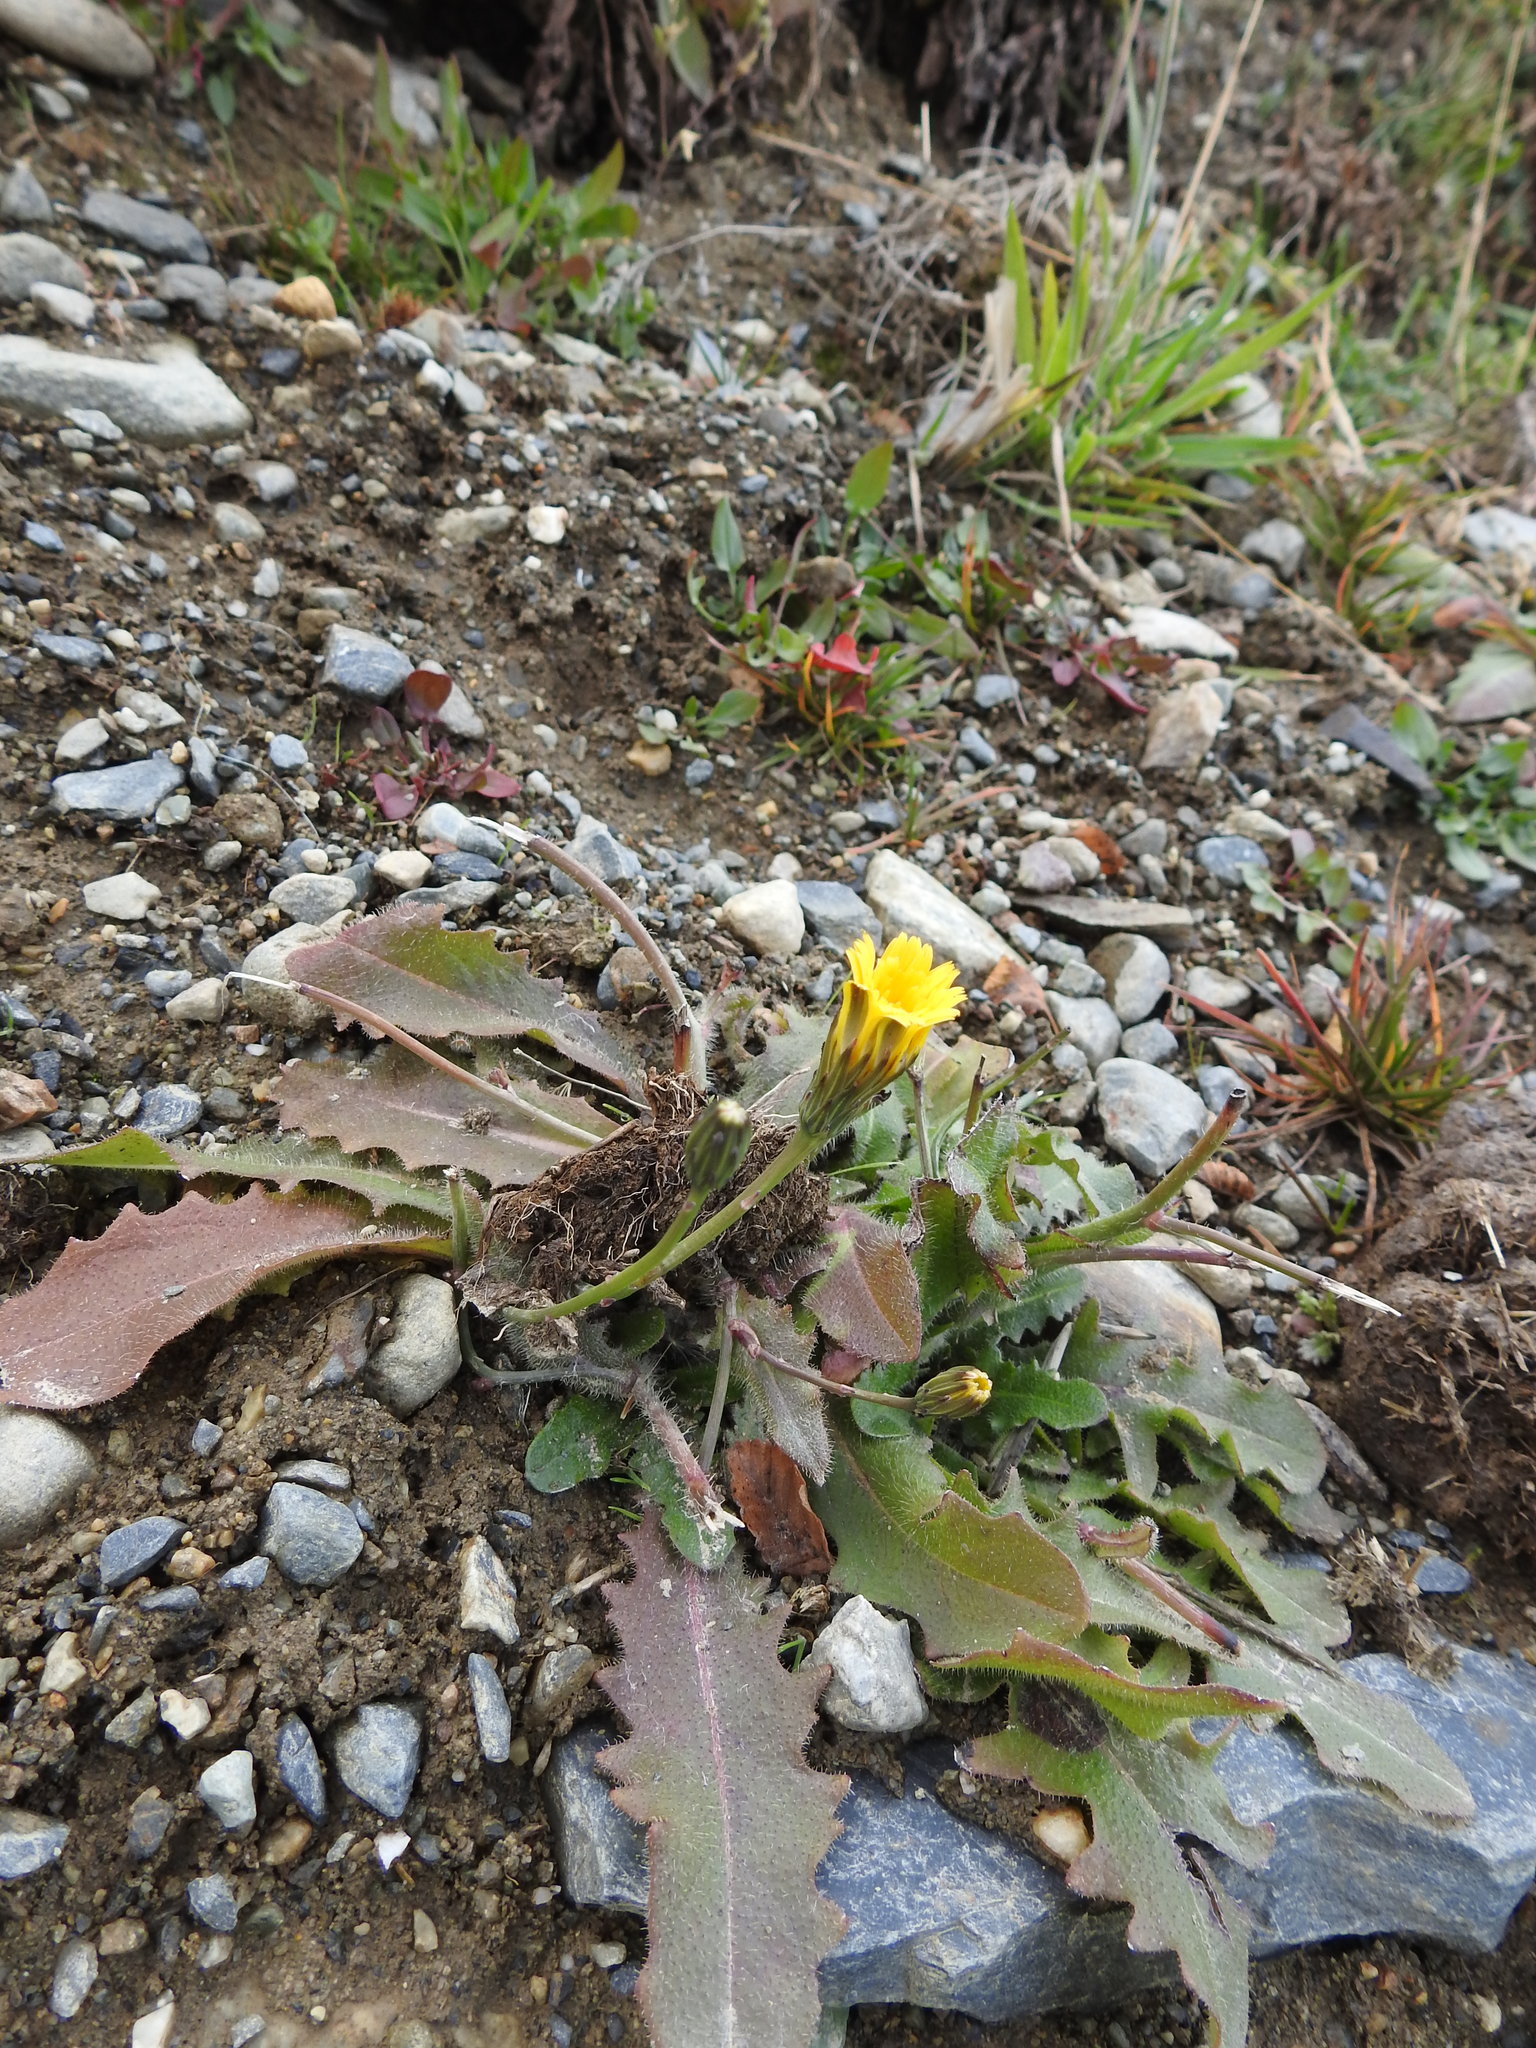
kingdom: Plantae
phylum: Tracheophyta
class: Magnoliopsida
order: Asterales
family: Asteraceae
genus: Hypochaeris
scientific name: Hypochaeris radicata
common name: Flatweed
